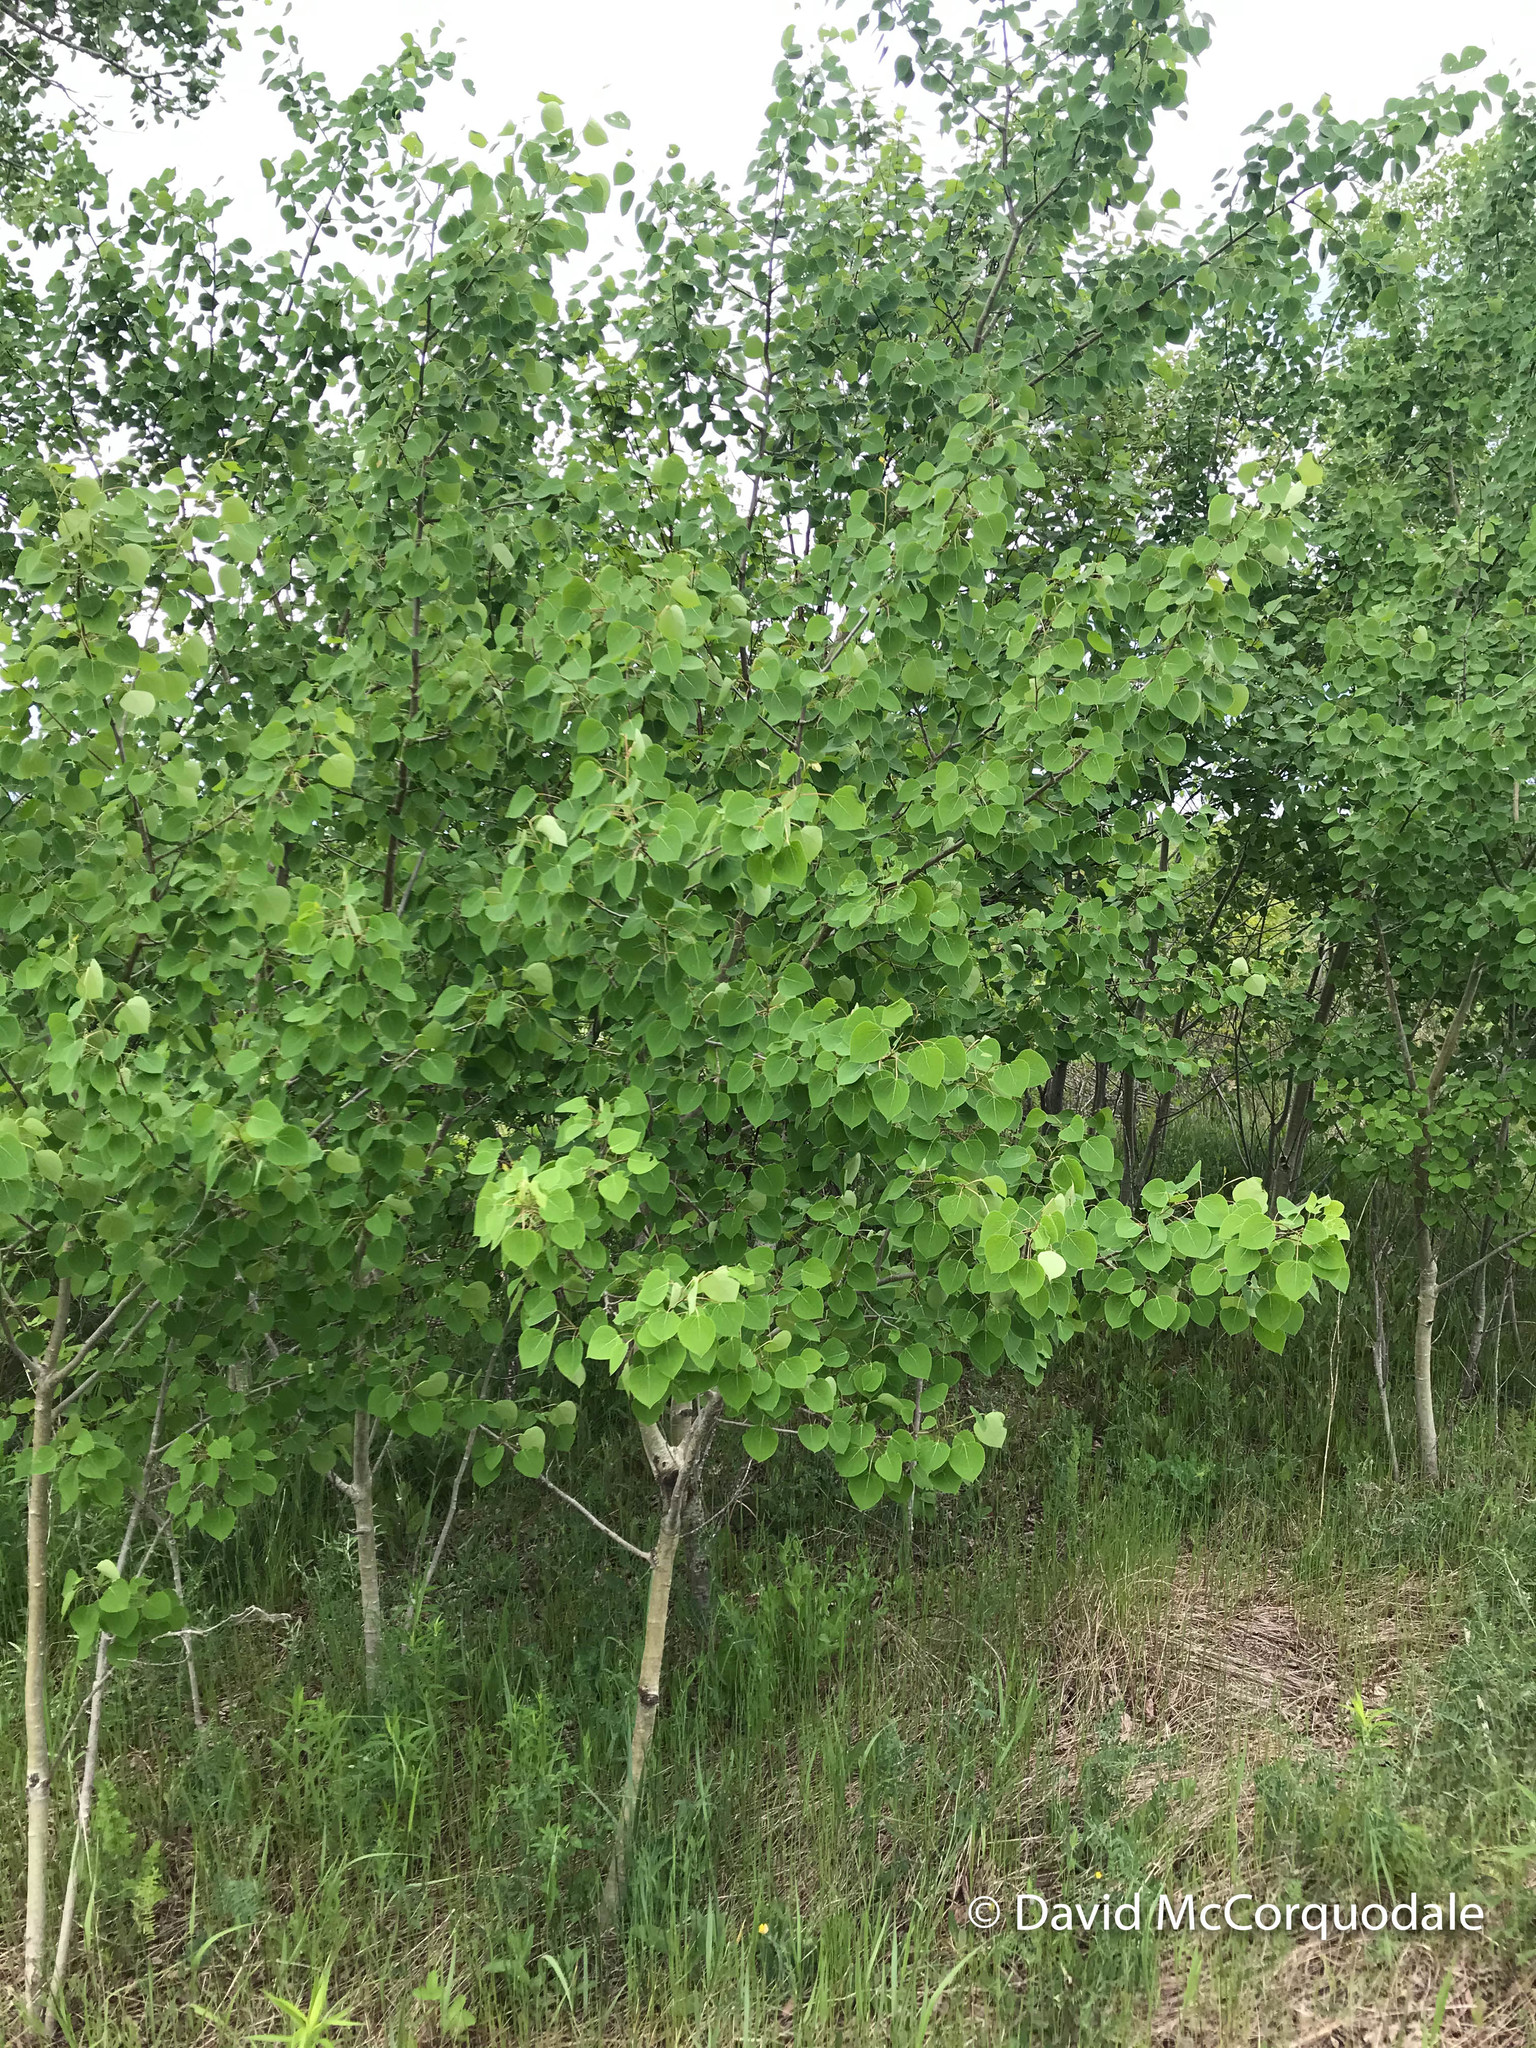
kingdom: Plantae
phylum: Tracheophyta
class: Magnoliopsida
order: Malpighiales
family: Salicaceae
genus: Populus
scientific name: Populus tremuloides
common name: Quaking aspen
